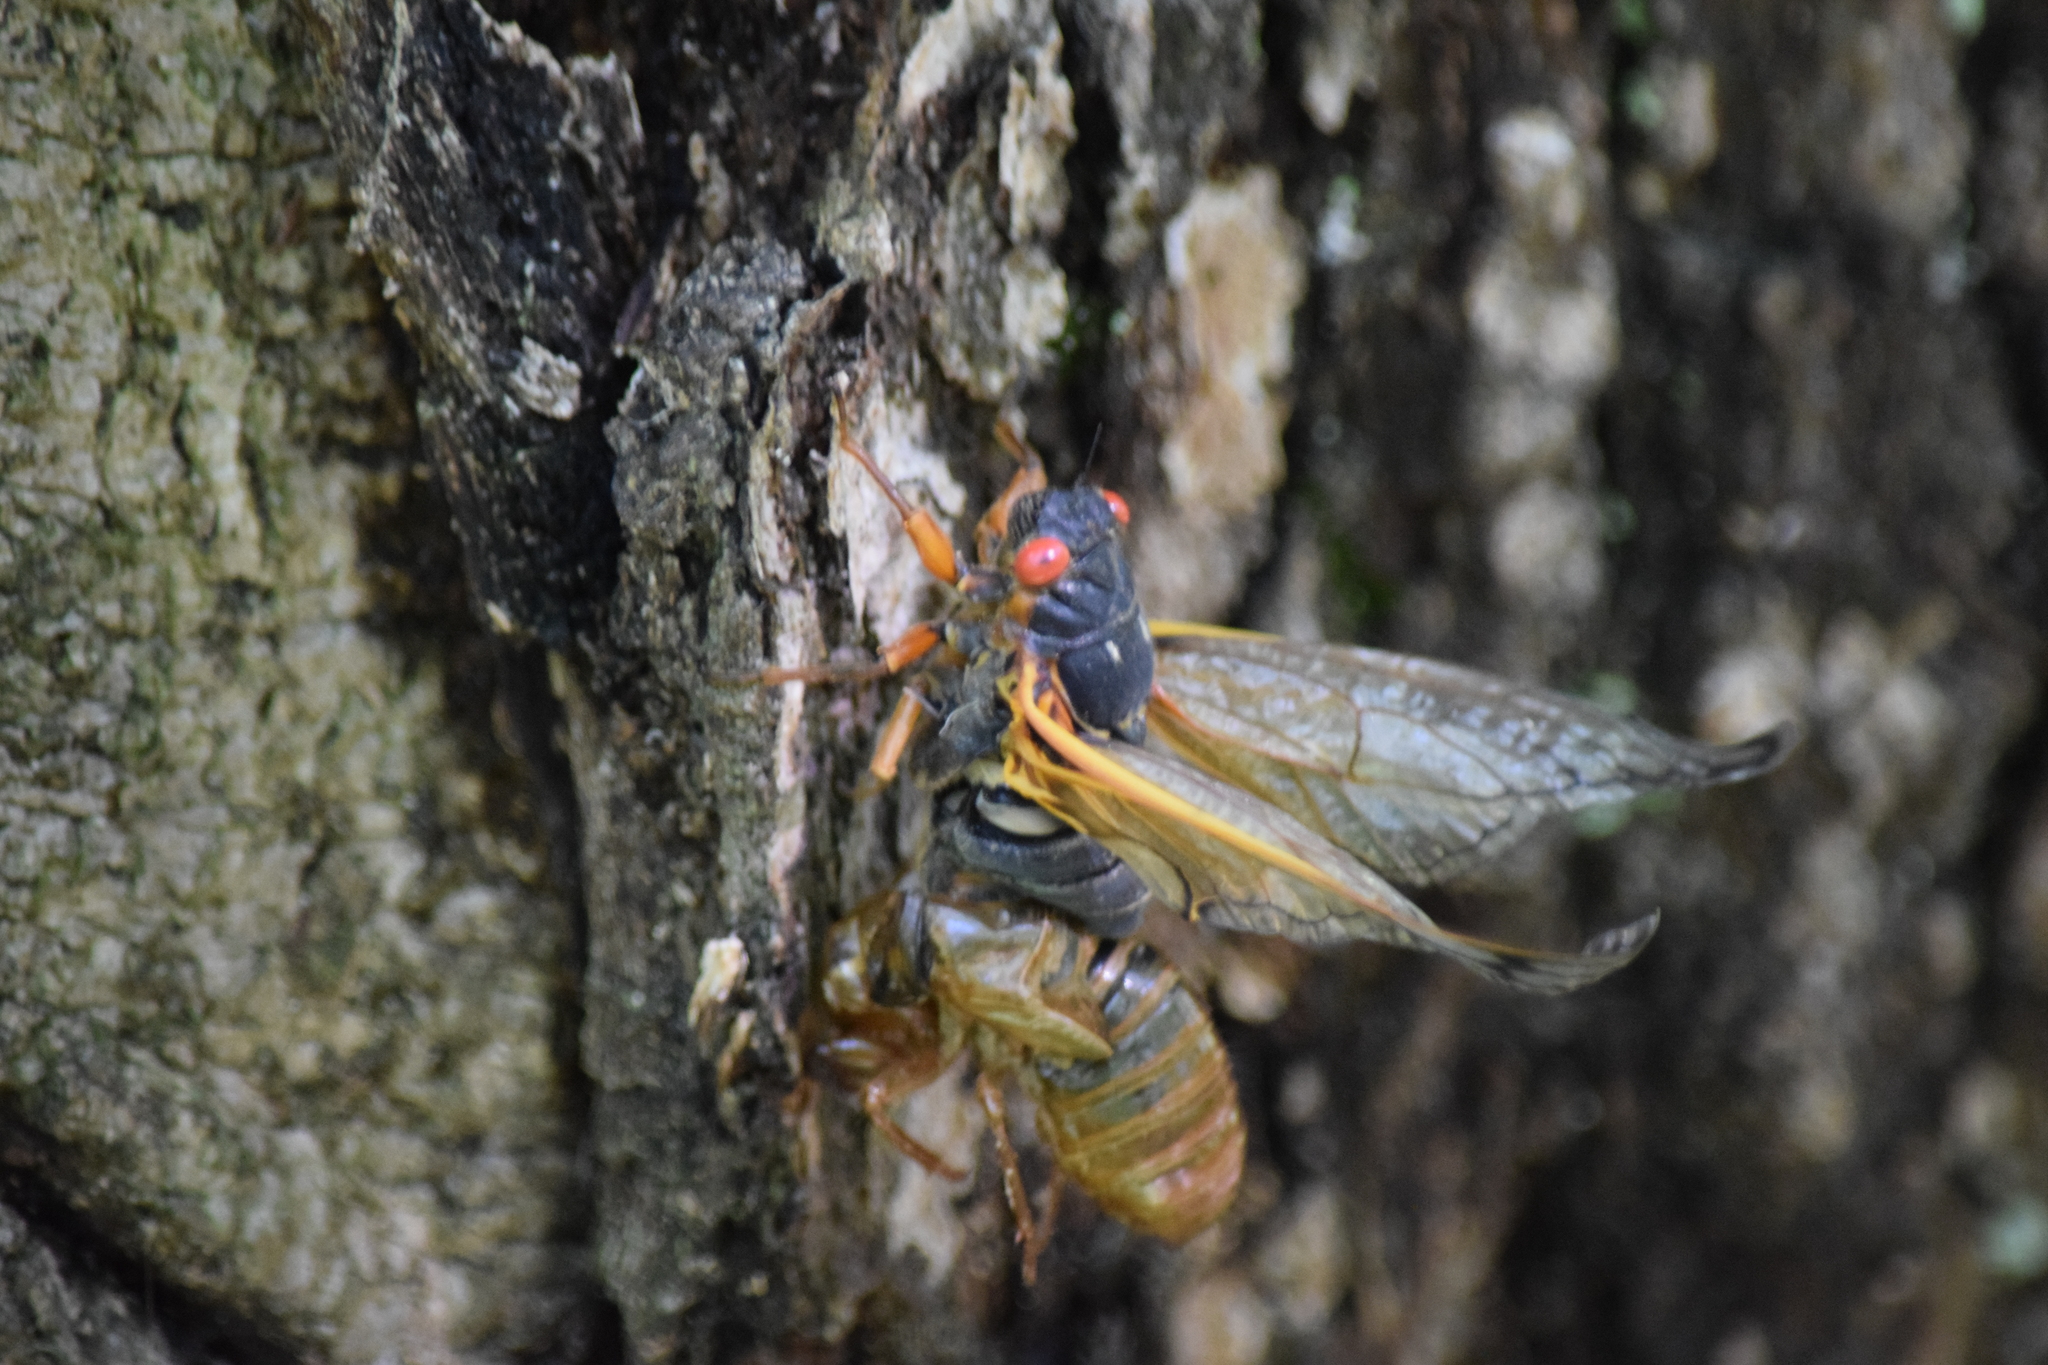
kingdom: Animalia
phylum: Arthropoda
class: Insecta
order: Hemiptera
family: Cicadidae
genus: Magicicada
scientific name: Magicicada septendecim
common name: Periodical cicada
